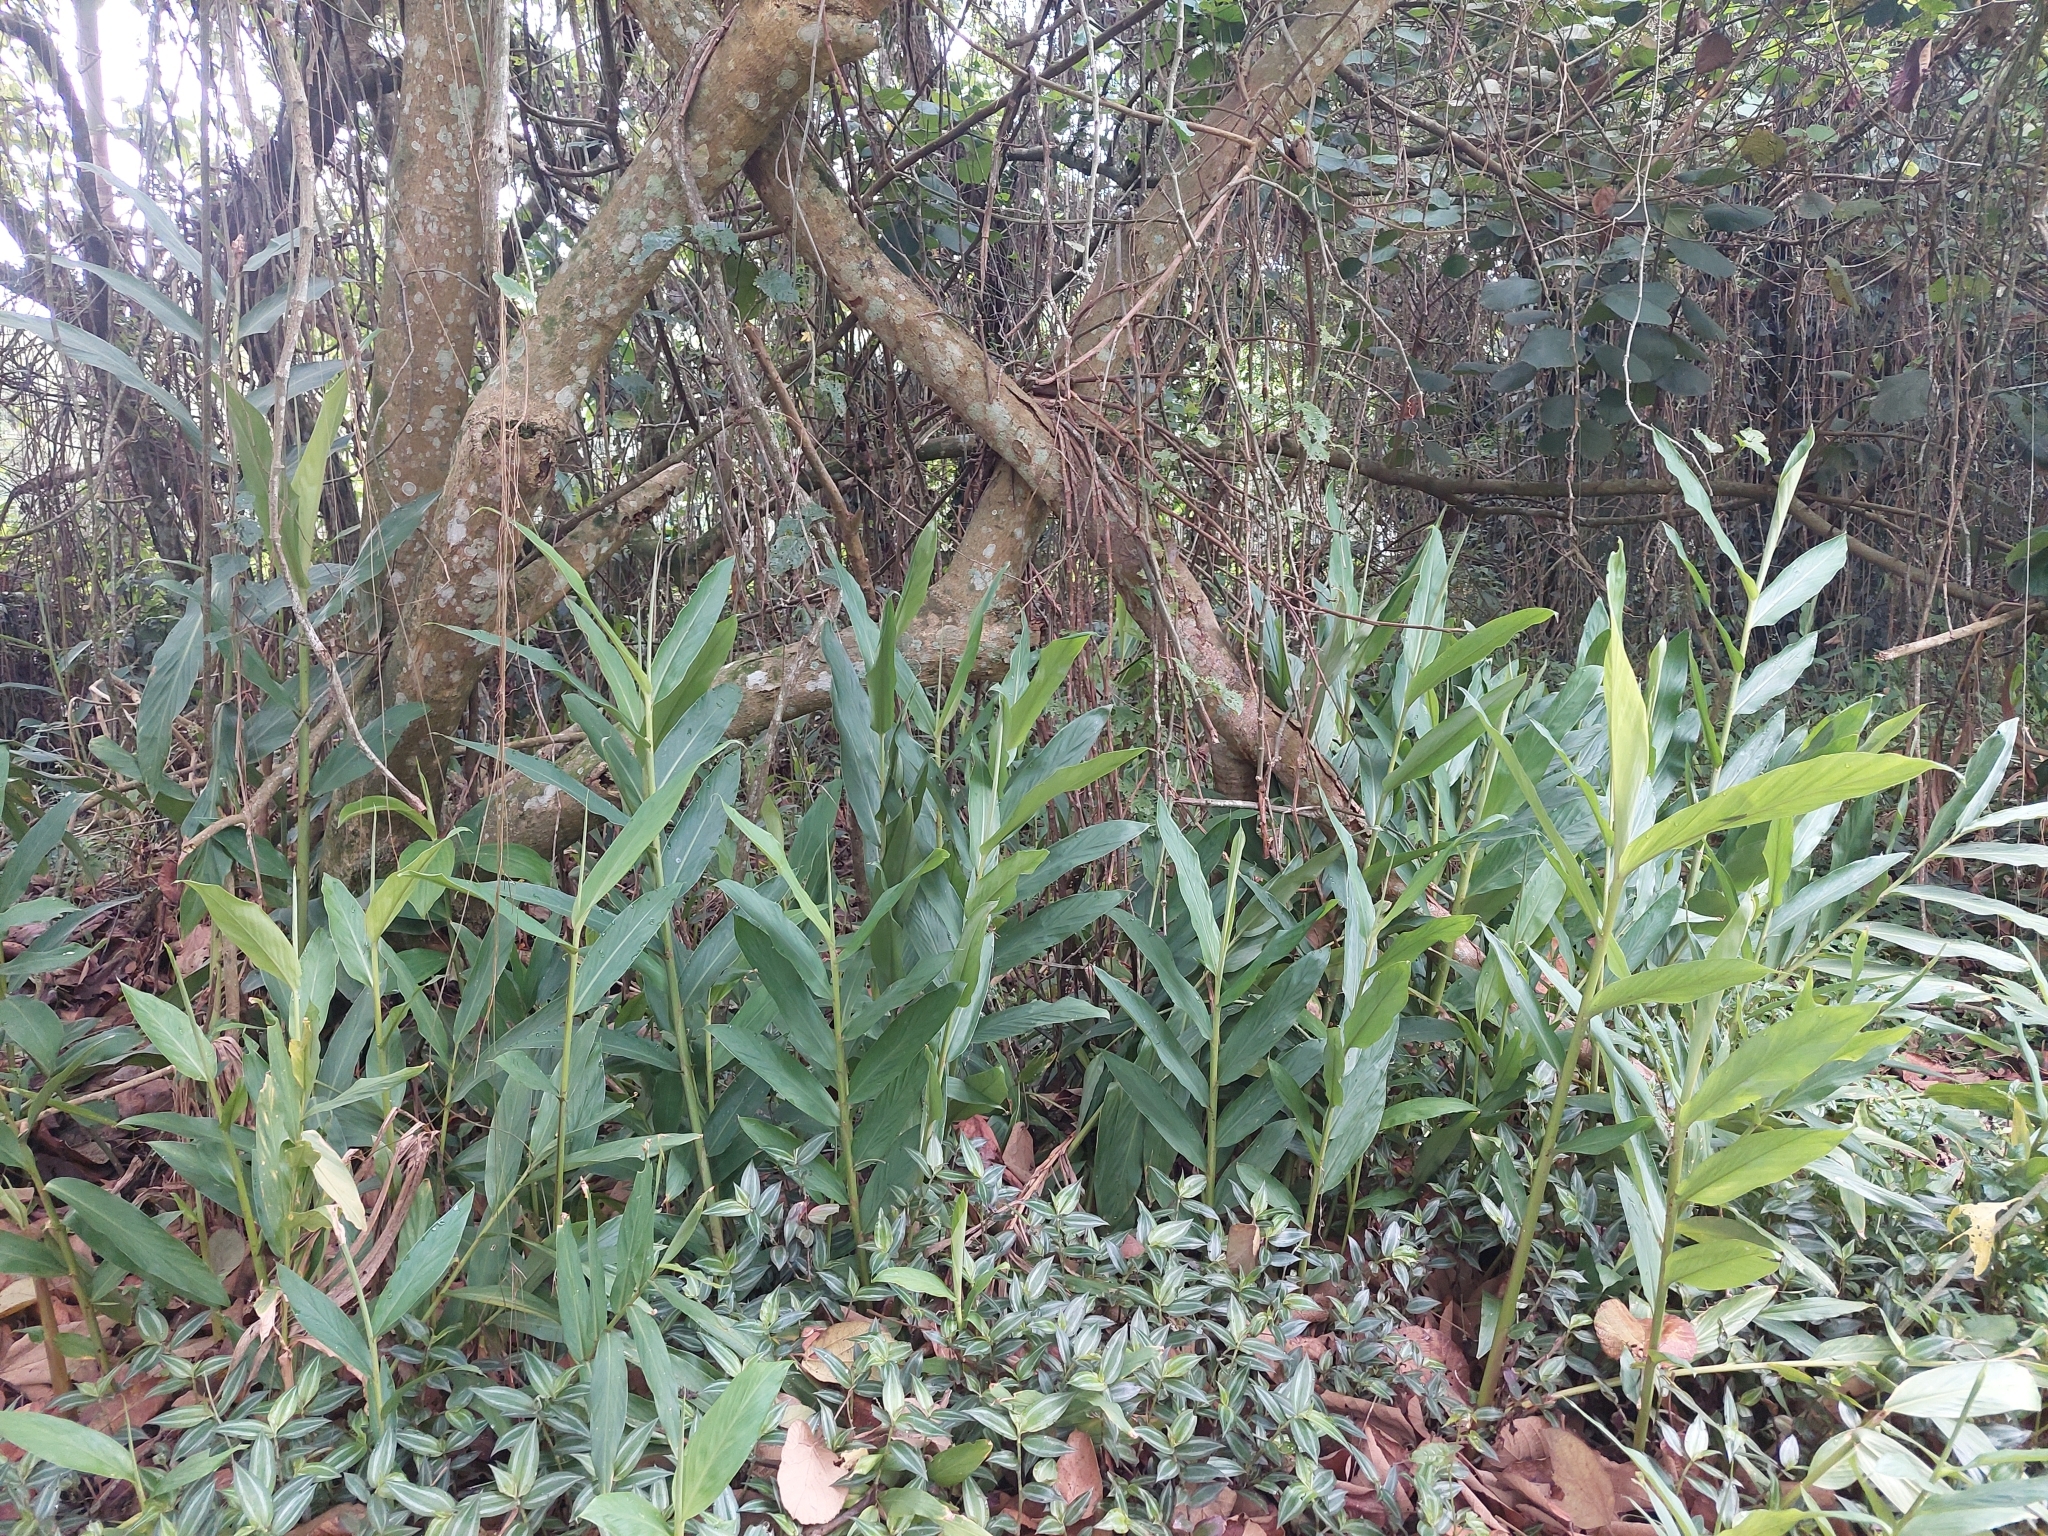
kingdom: Plantae
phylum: Tracheophyta
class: Liliopsida
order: Zingiberales
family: Zingiberaceae
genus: Hedychium
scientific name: Hedychium coronarium
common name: White garland-lily
